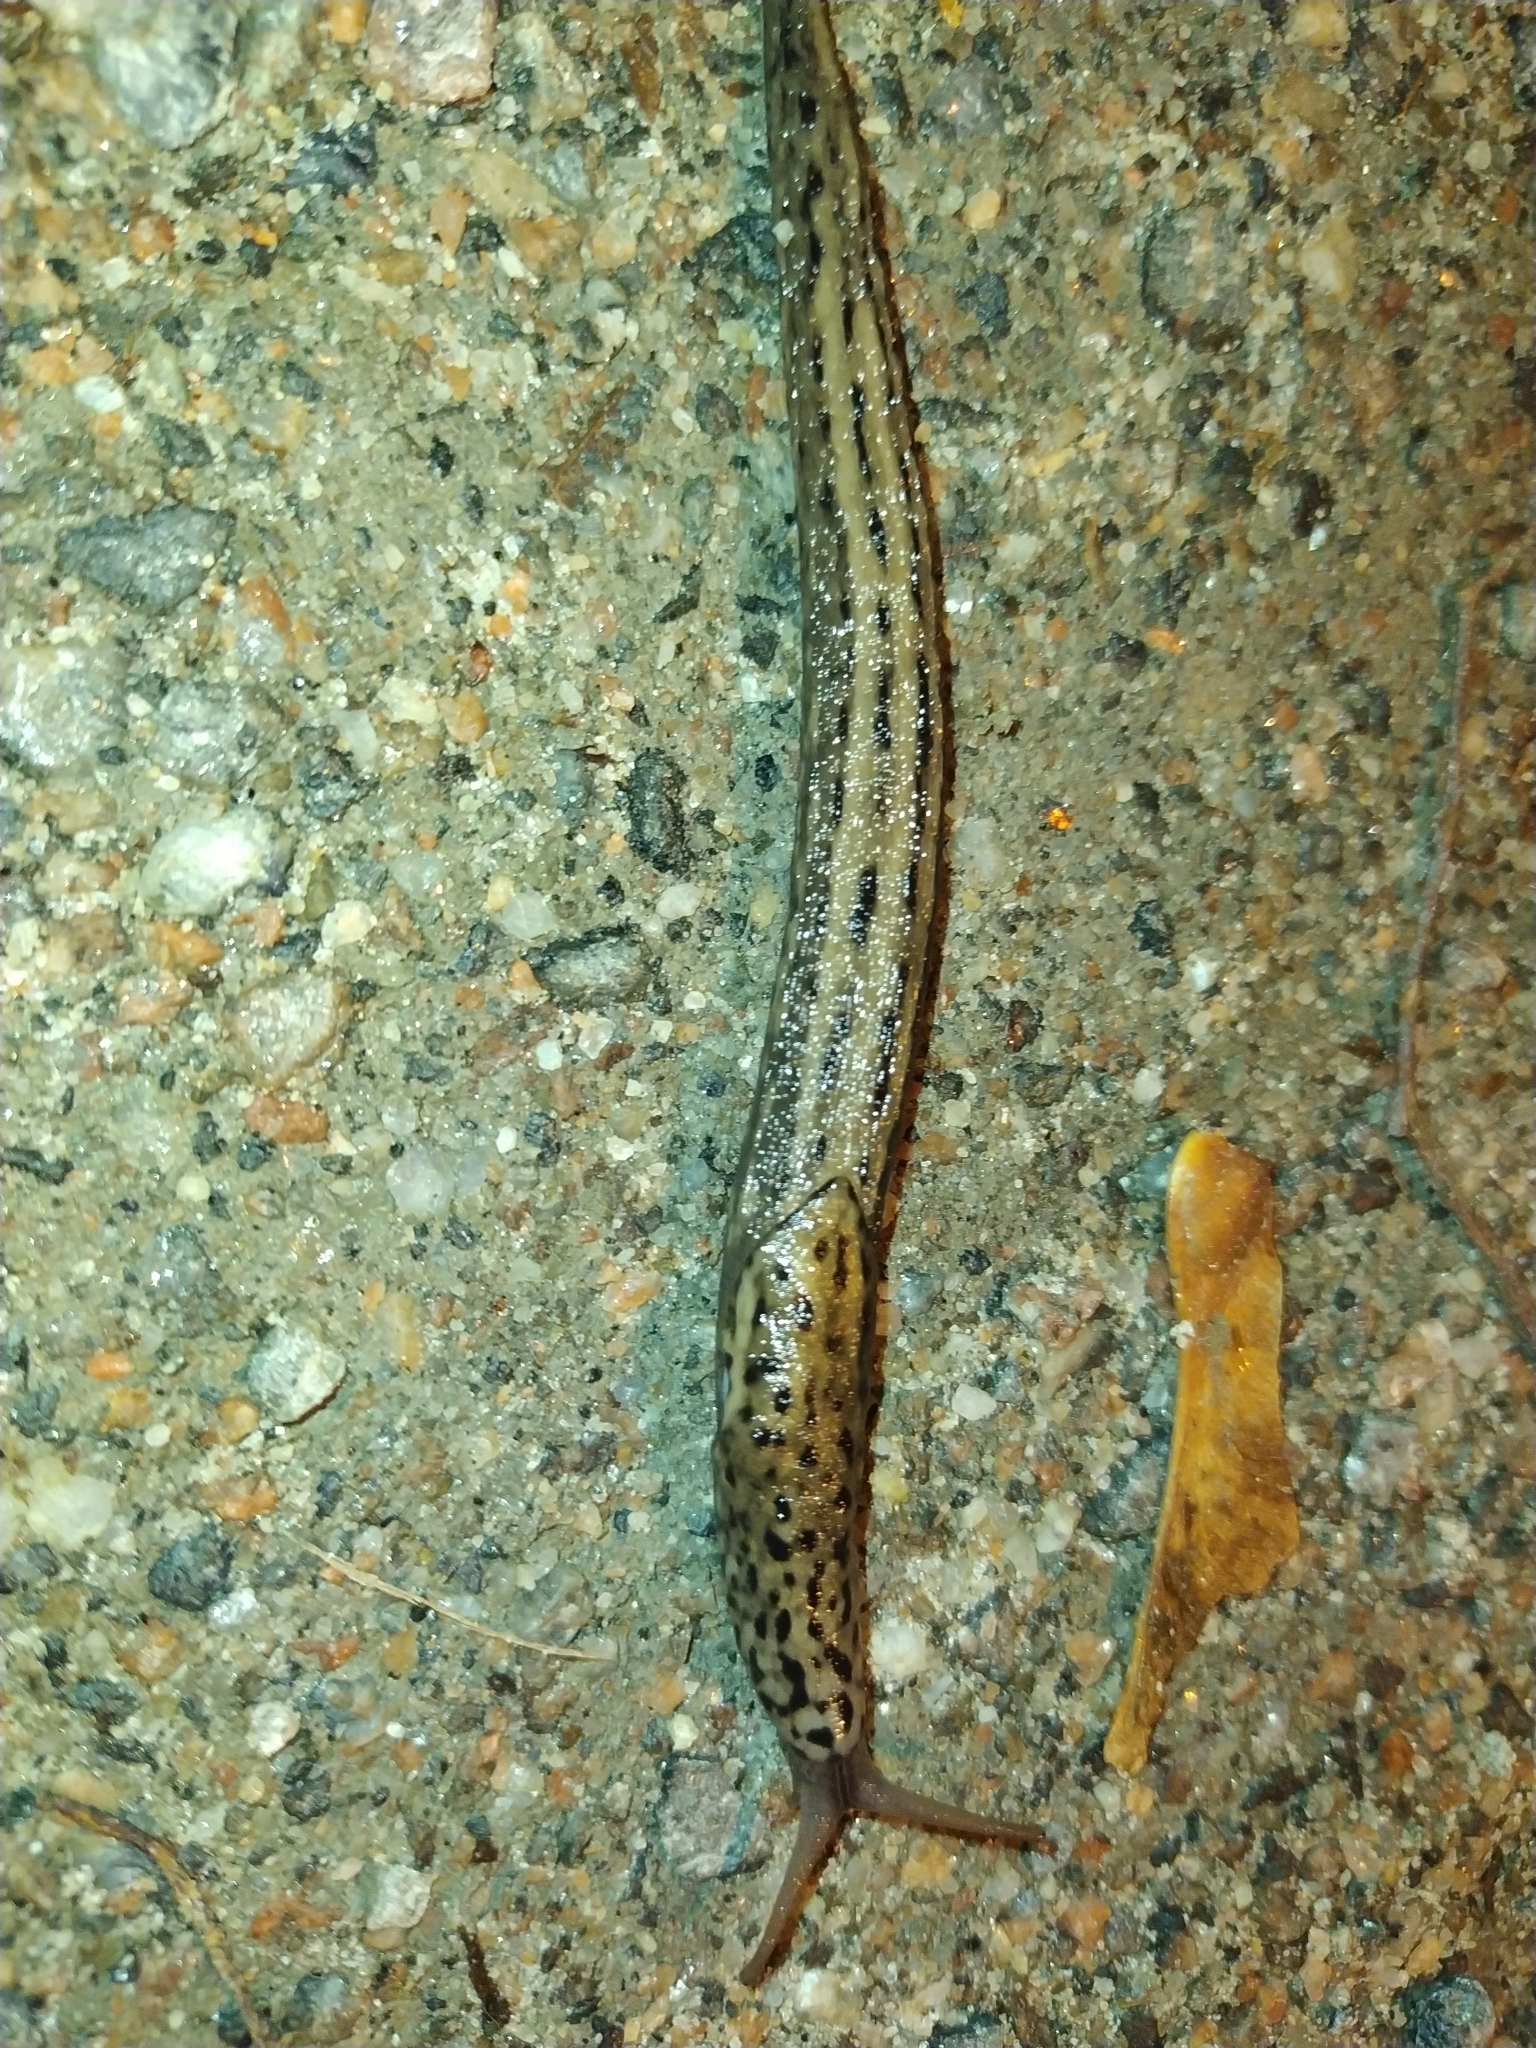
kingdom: Animalia
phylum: Mollusca
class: Gastropoda
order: Stylommatophora
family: Limacidae
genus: Limax
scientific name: Limax maximus
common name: Great grey slug
